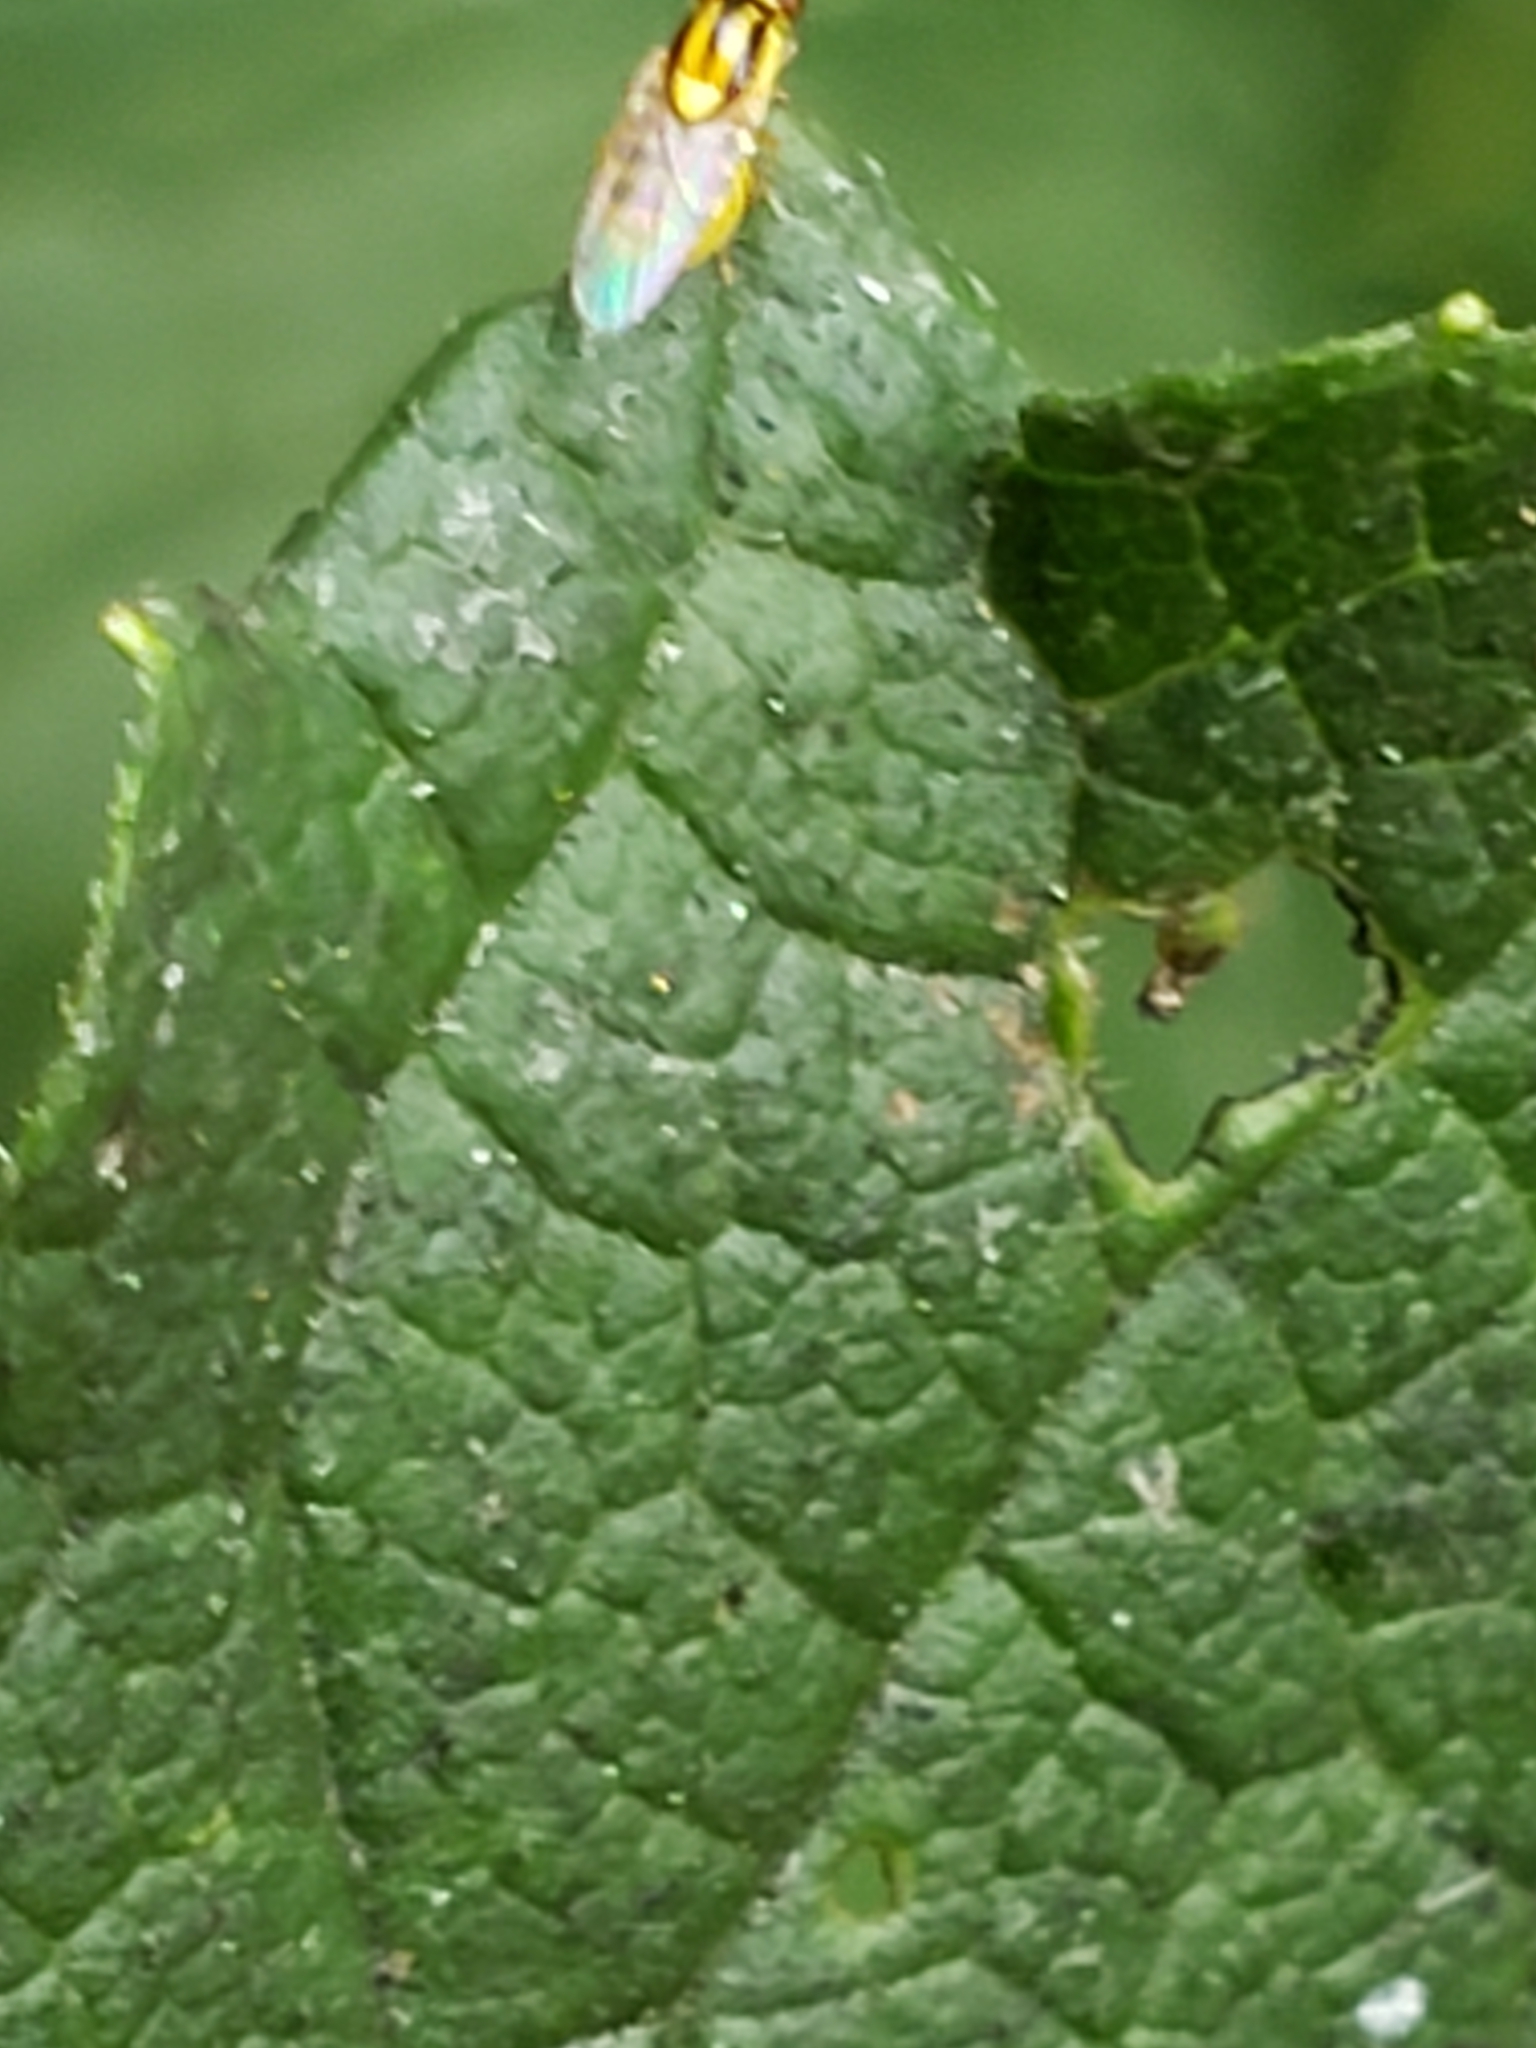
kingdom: Animalia
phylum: Arthropoda
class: Insecta
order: Diptera
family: Chloropidae
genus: Thaumatomyia
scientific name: Thaumatomyia glabra
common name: Chloropid fly
